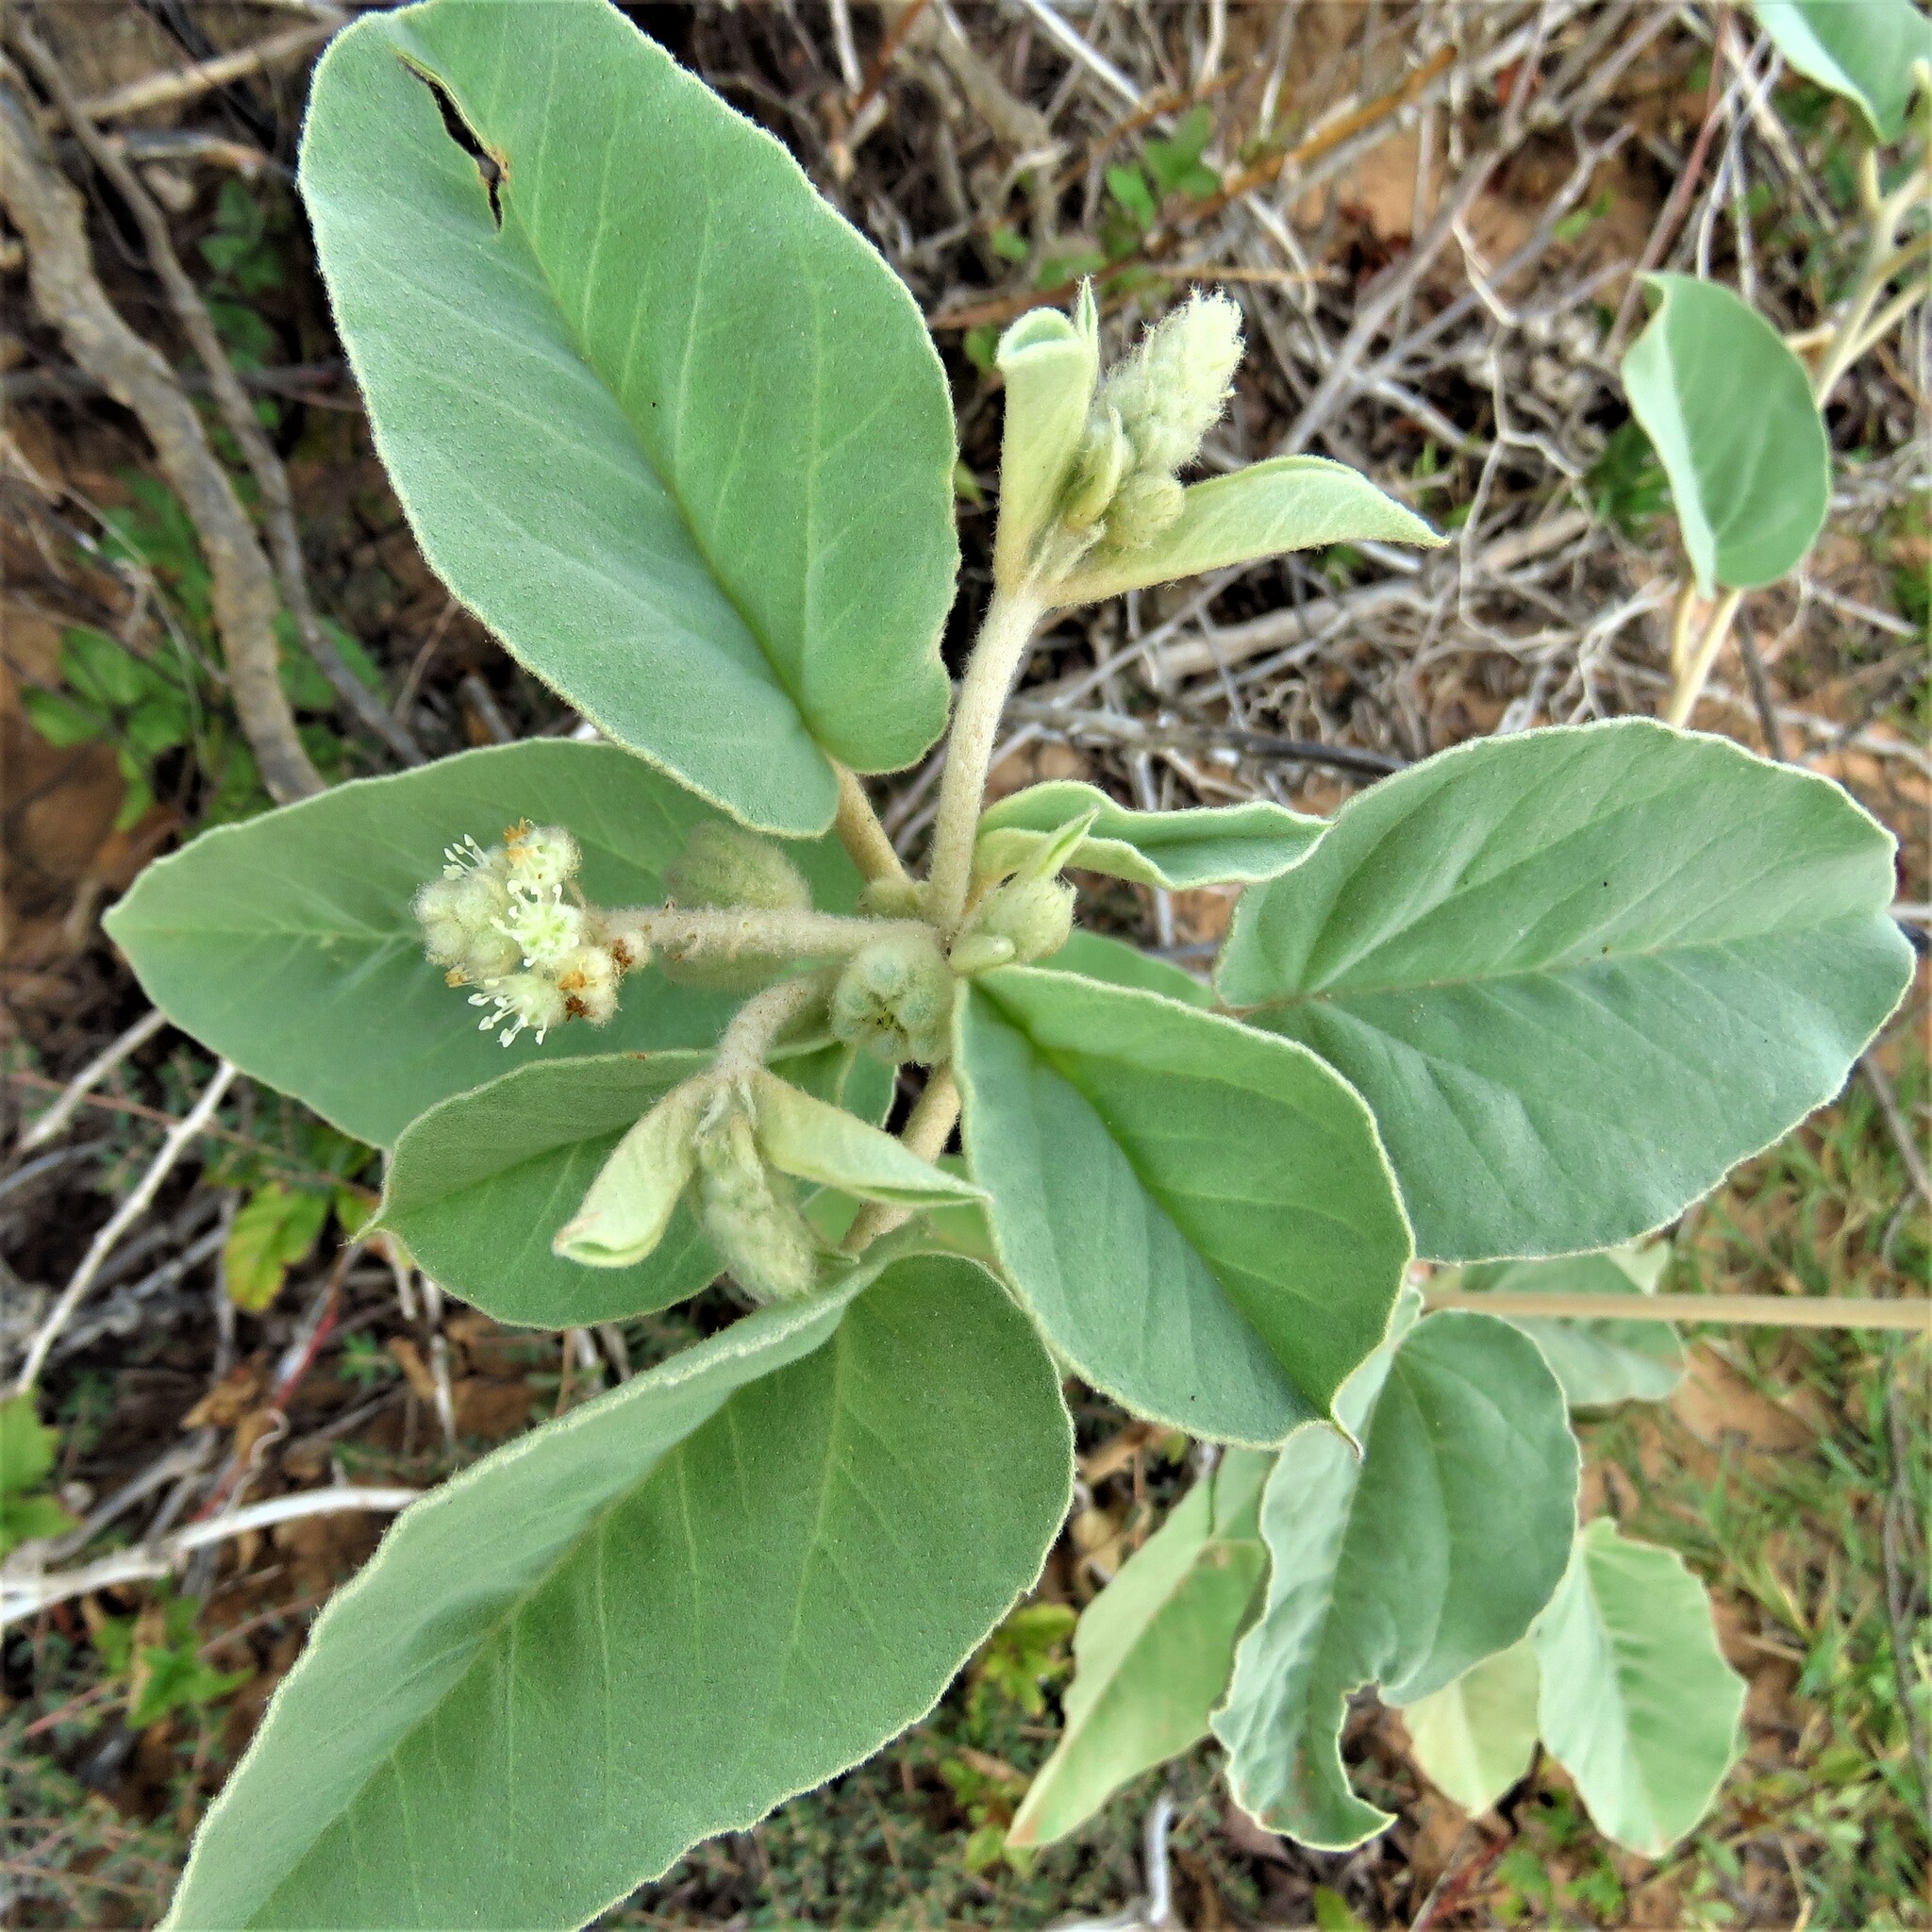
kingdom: Plantae
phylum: Tracheophyta
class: Magnoliopsida
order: Malpighiales
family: Euphorbiaceae
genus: Croton
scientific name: Croton lindheimeri
